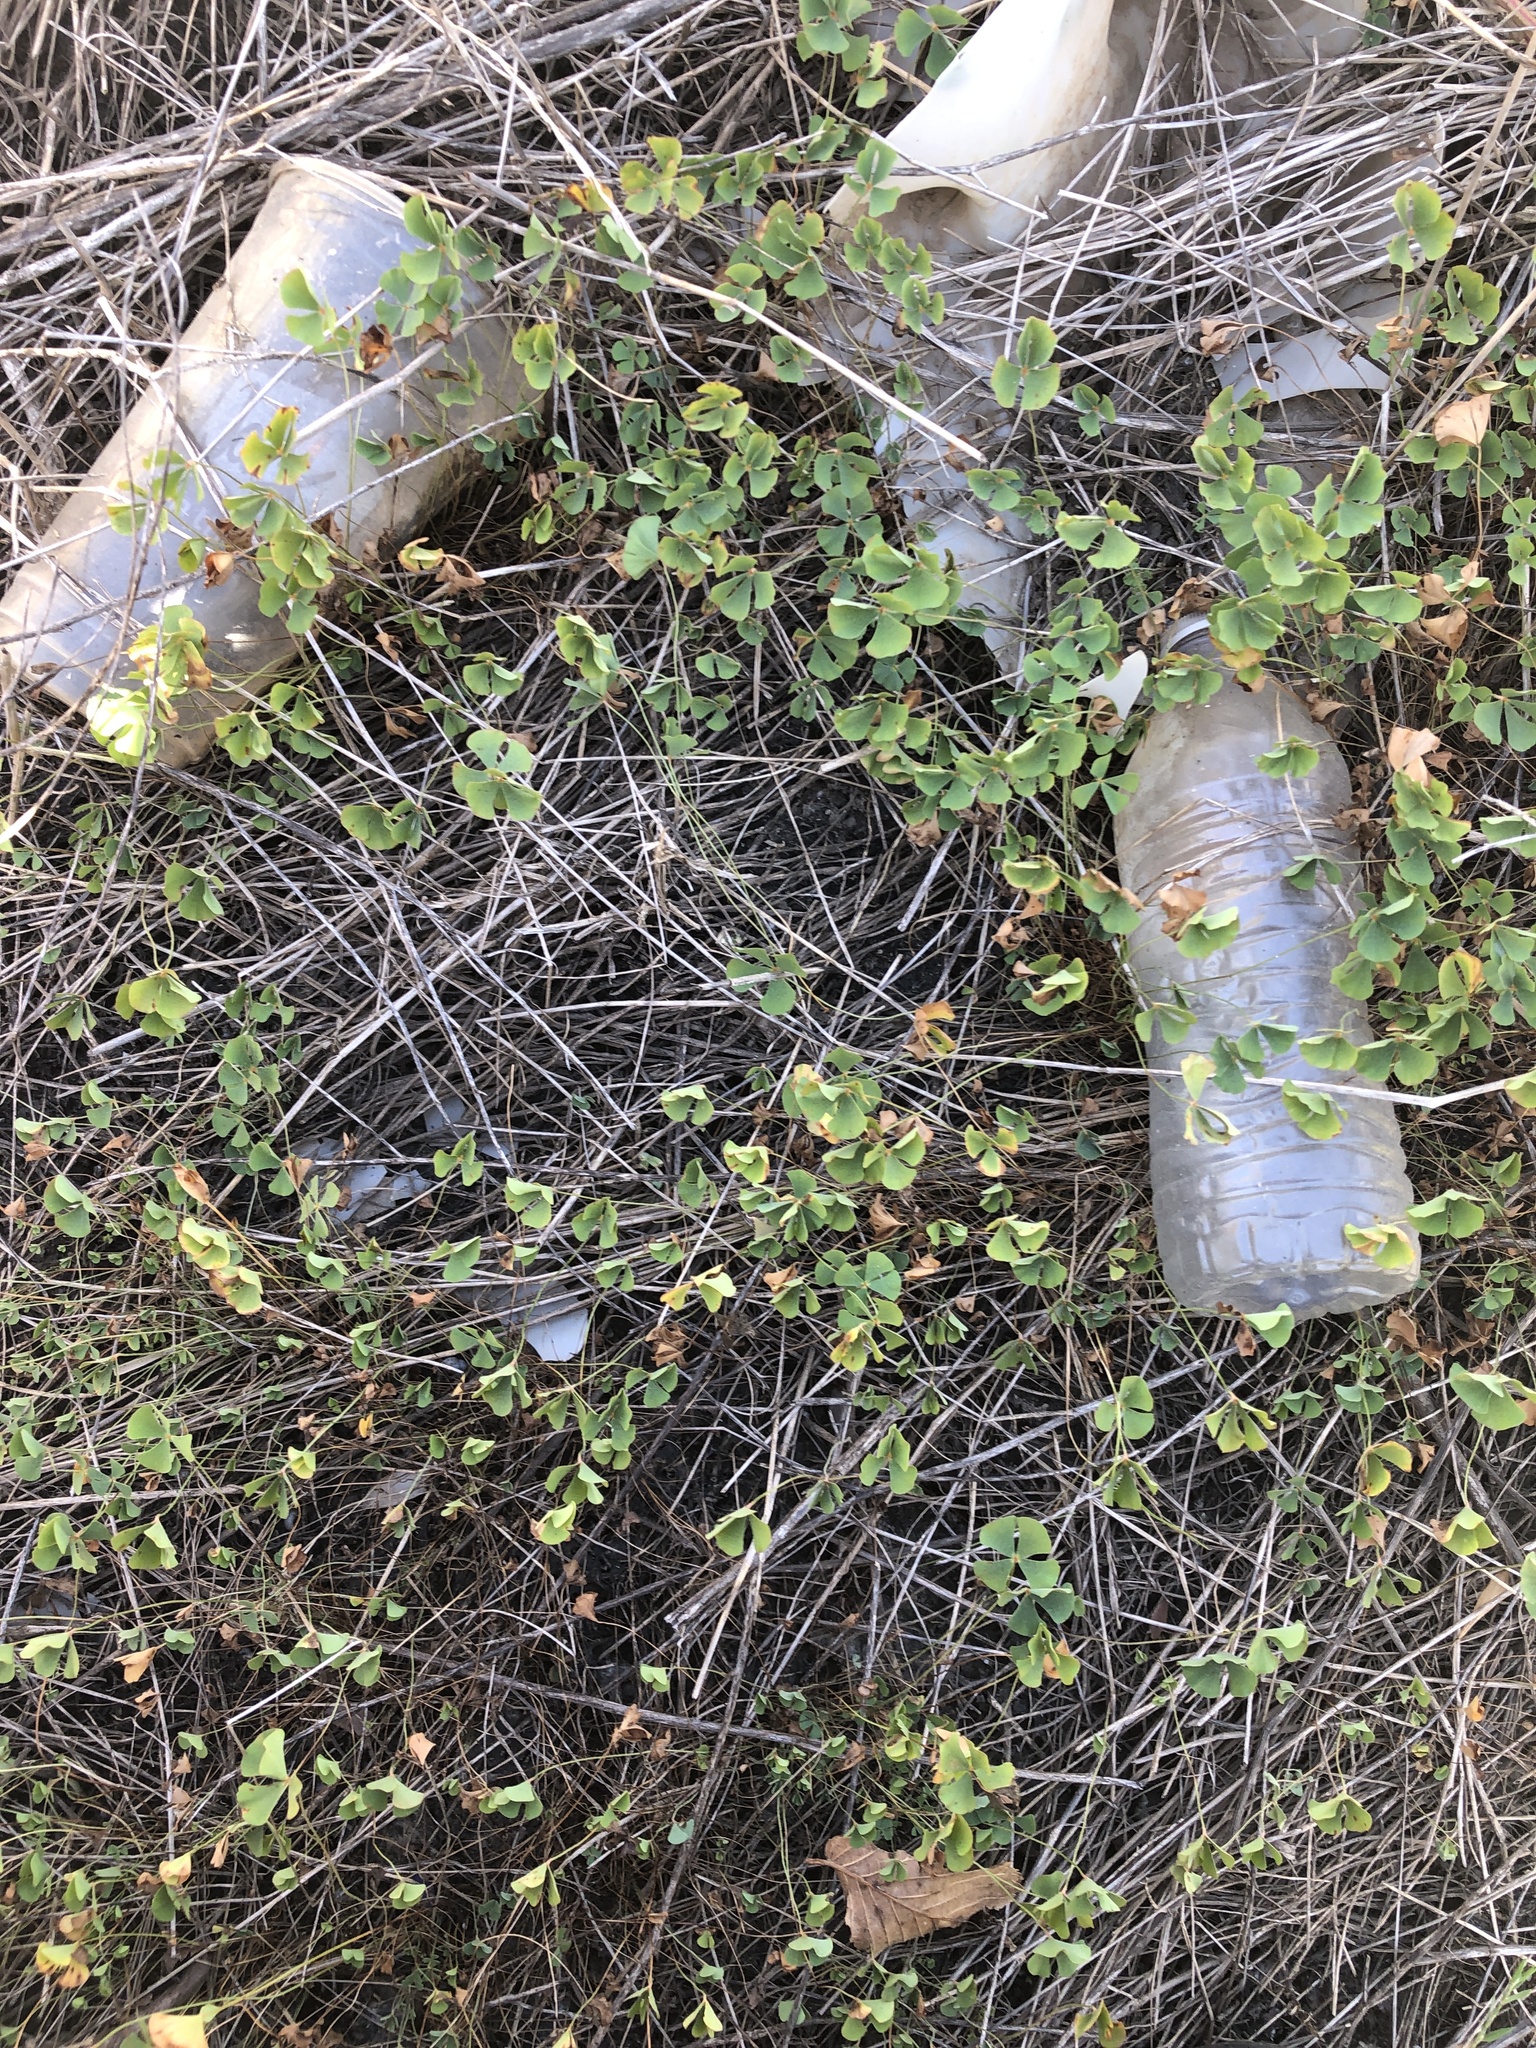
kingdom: Plantae
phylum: Tracheophyta
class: Polypodiopsida
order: Salviniales
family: Marsileaceae
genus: Marsilea
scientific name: Marsilea vestita
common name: Hooked-pepperwort
